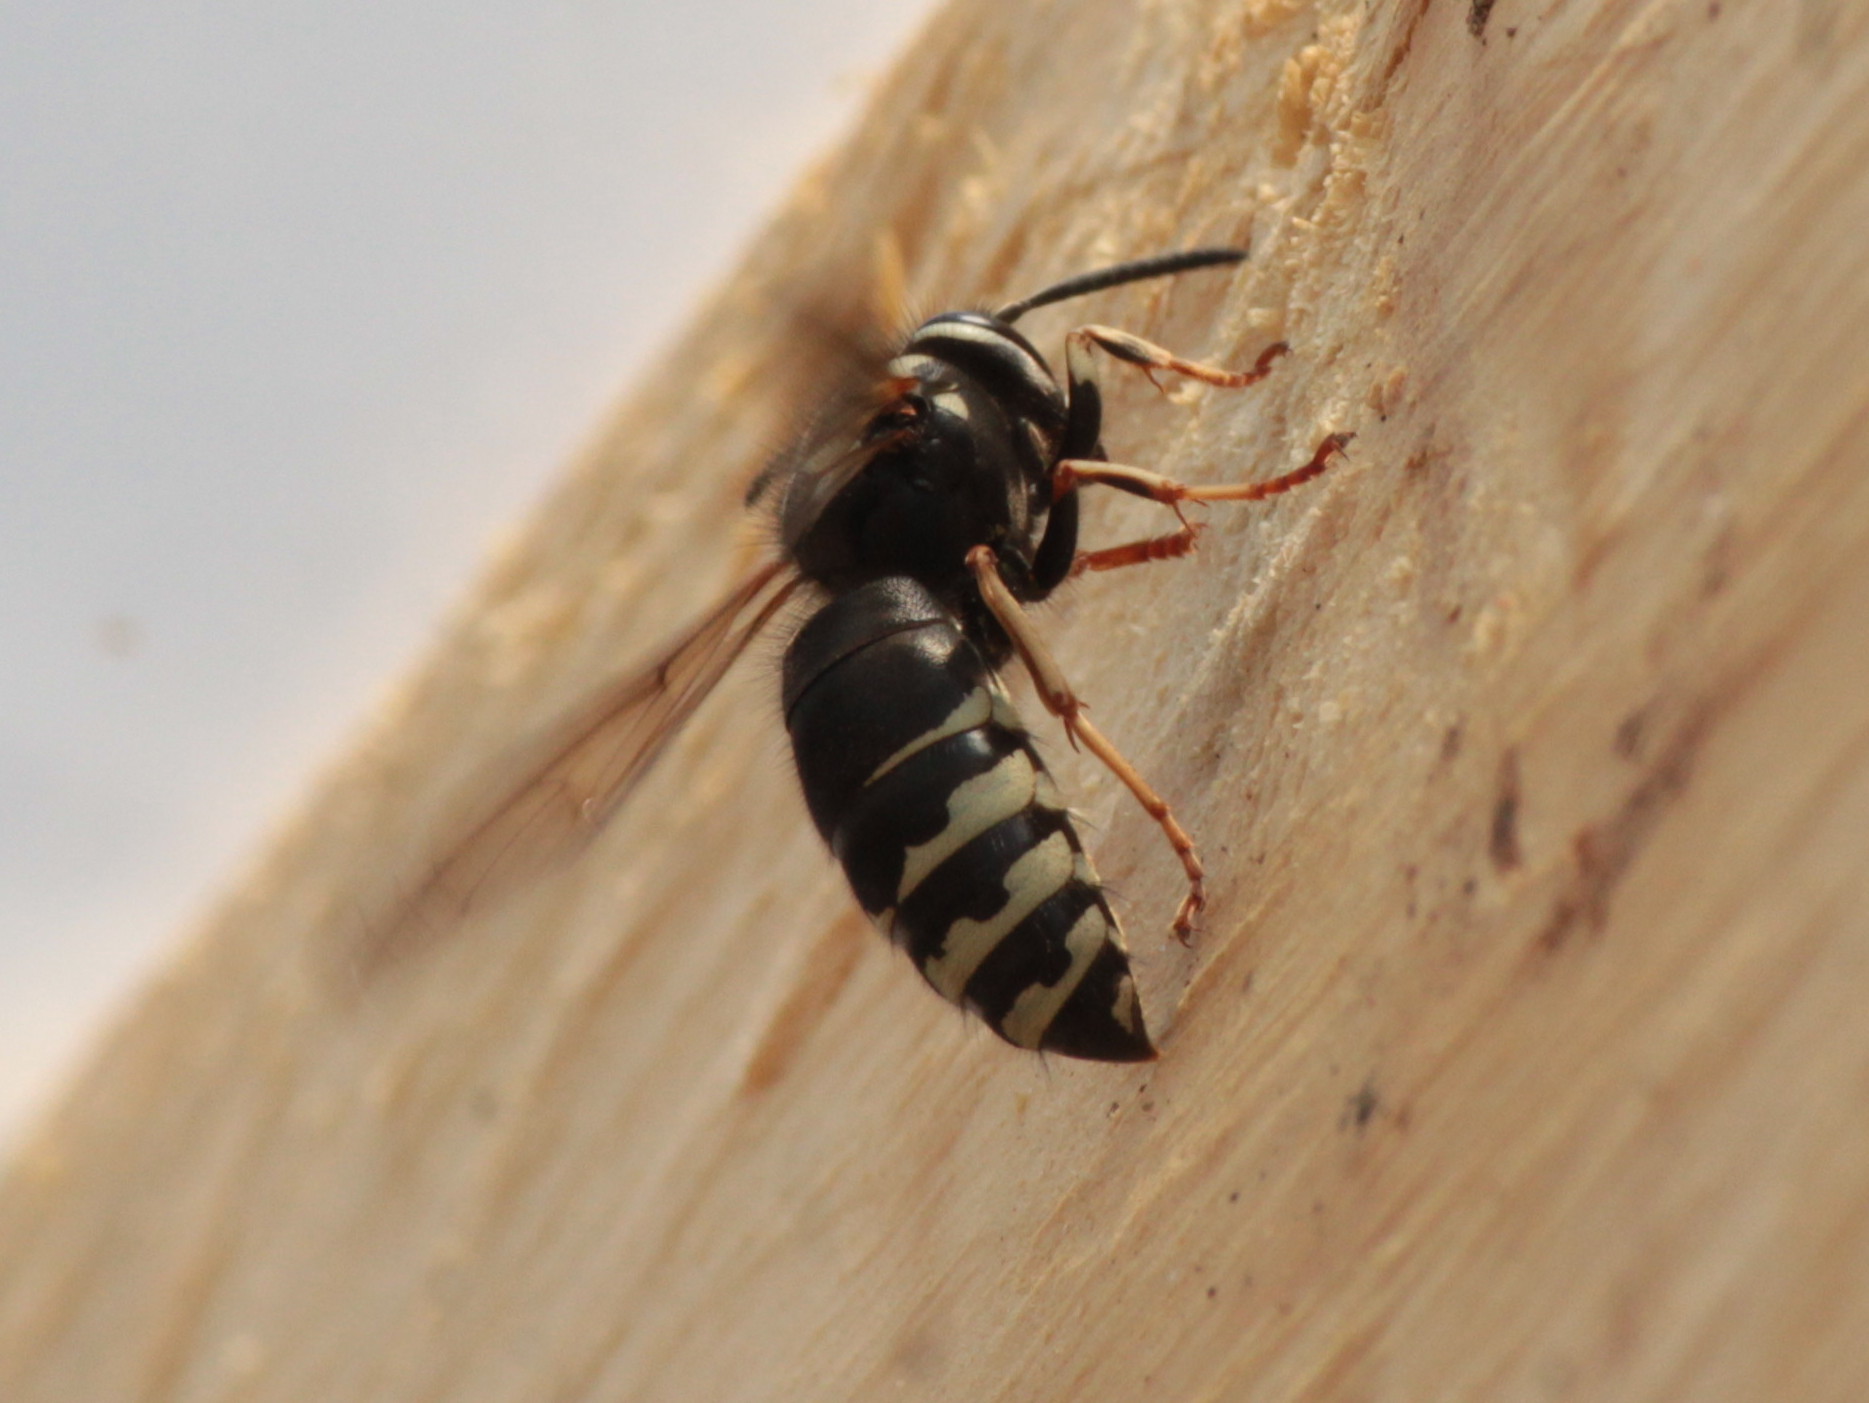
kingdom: Animalia
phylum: Arthropoda
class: Insecta
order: Hymenoptera
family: Vespidae
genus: Vespula
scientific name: Vespula consobrina
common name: Blackjacket
